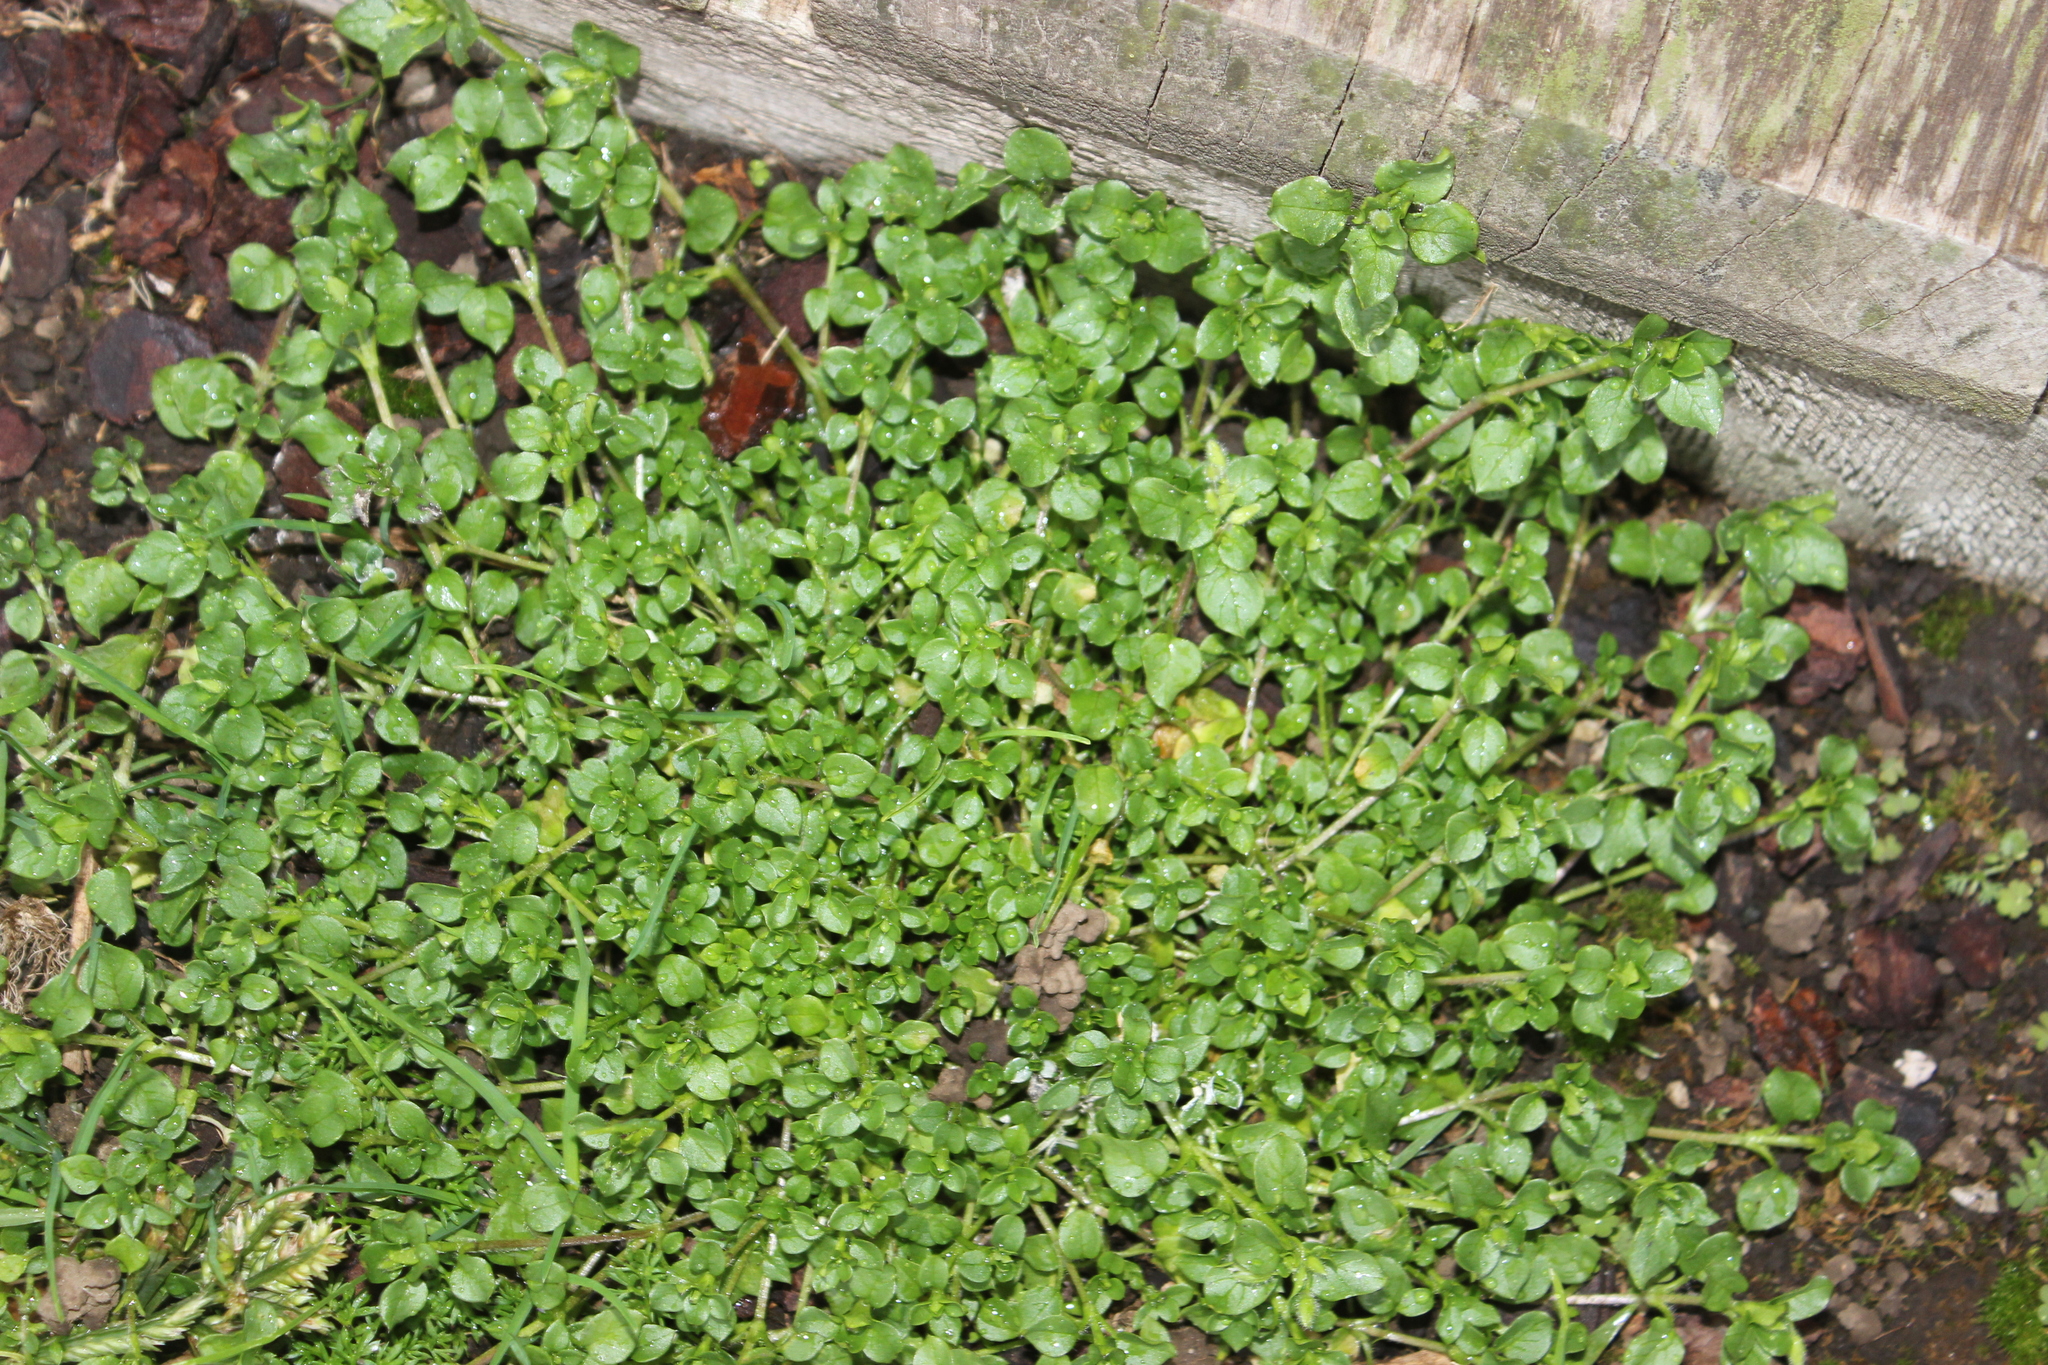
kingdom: Plantae
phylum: Tracheophyta
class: Magnoliopsida
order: Caryophyllales
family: Caryophyllaceae
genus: Stellaria
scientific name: Stellaria media
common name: Common chickweed
